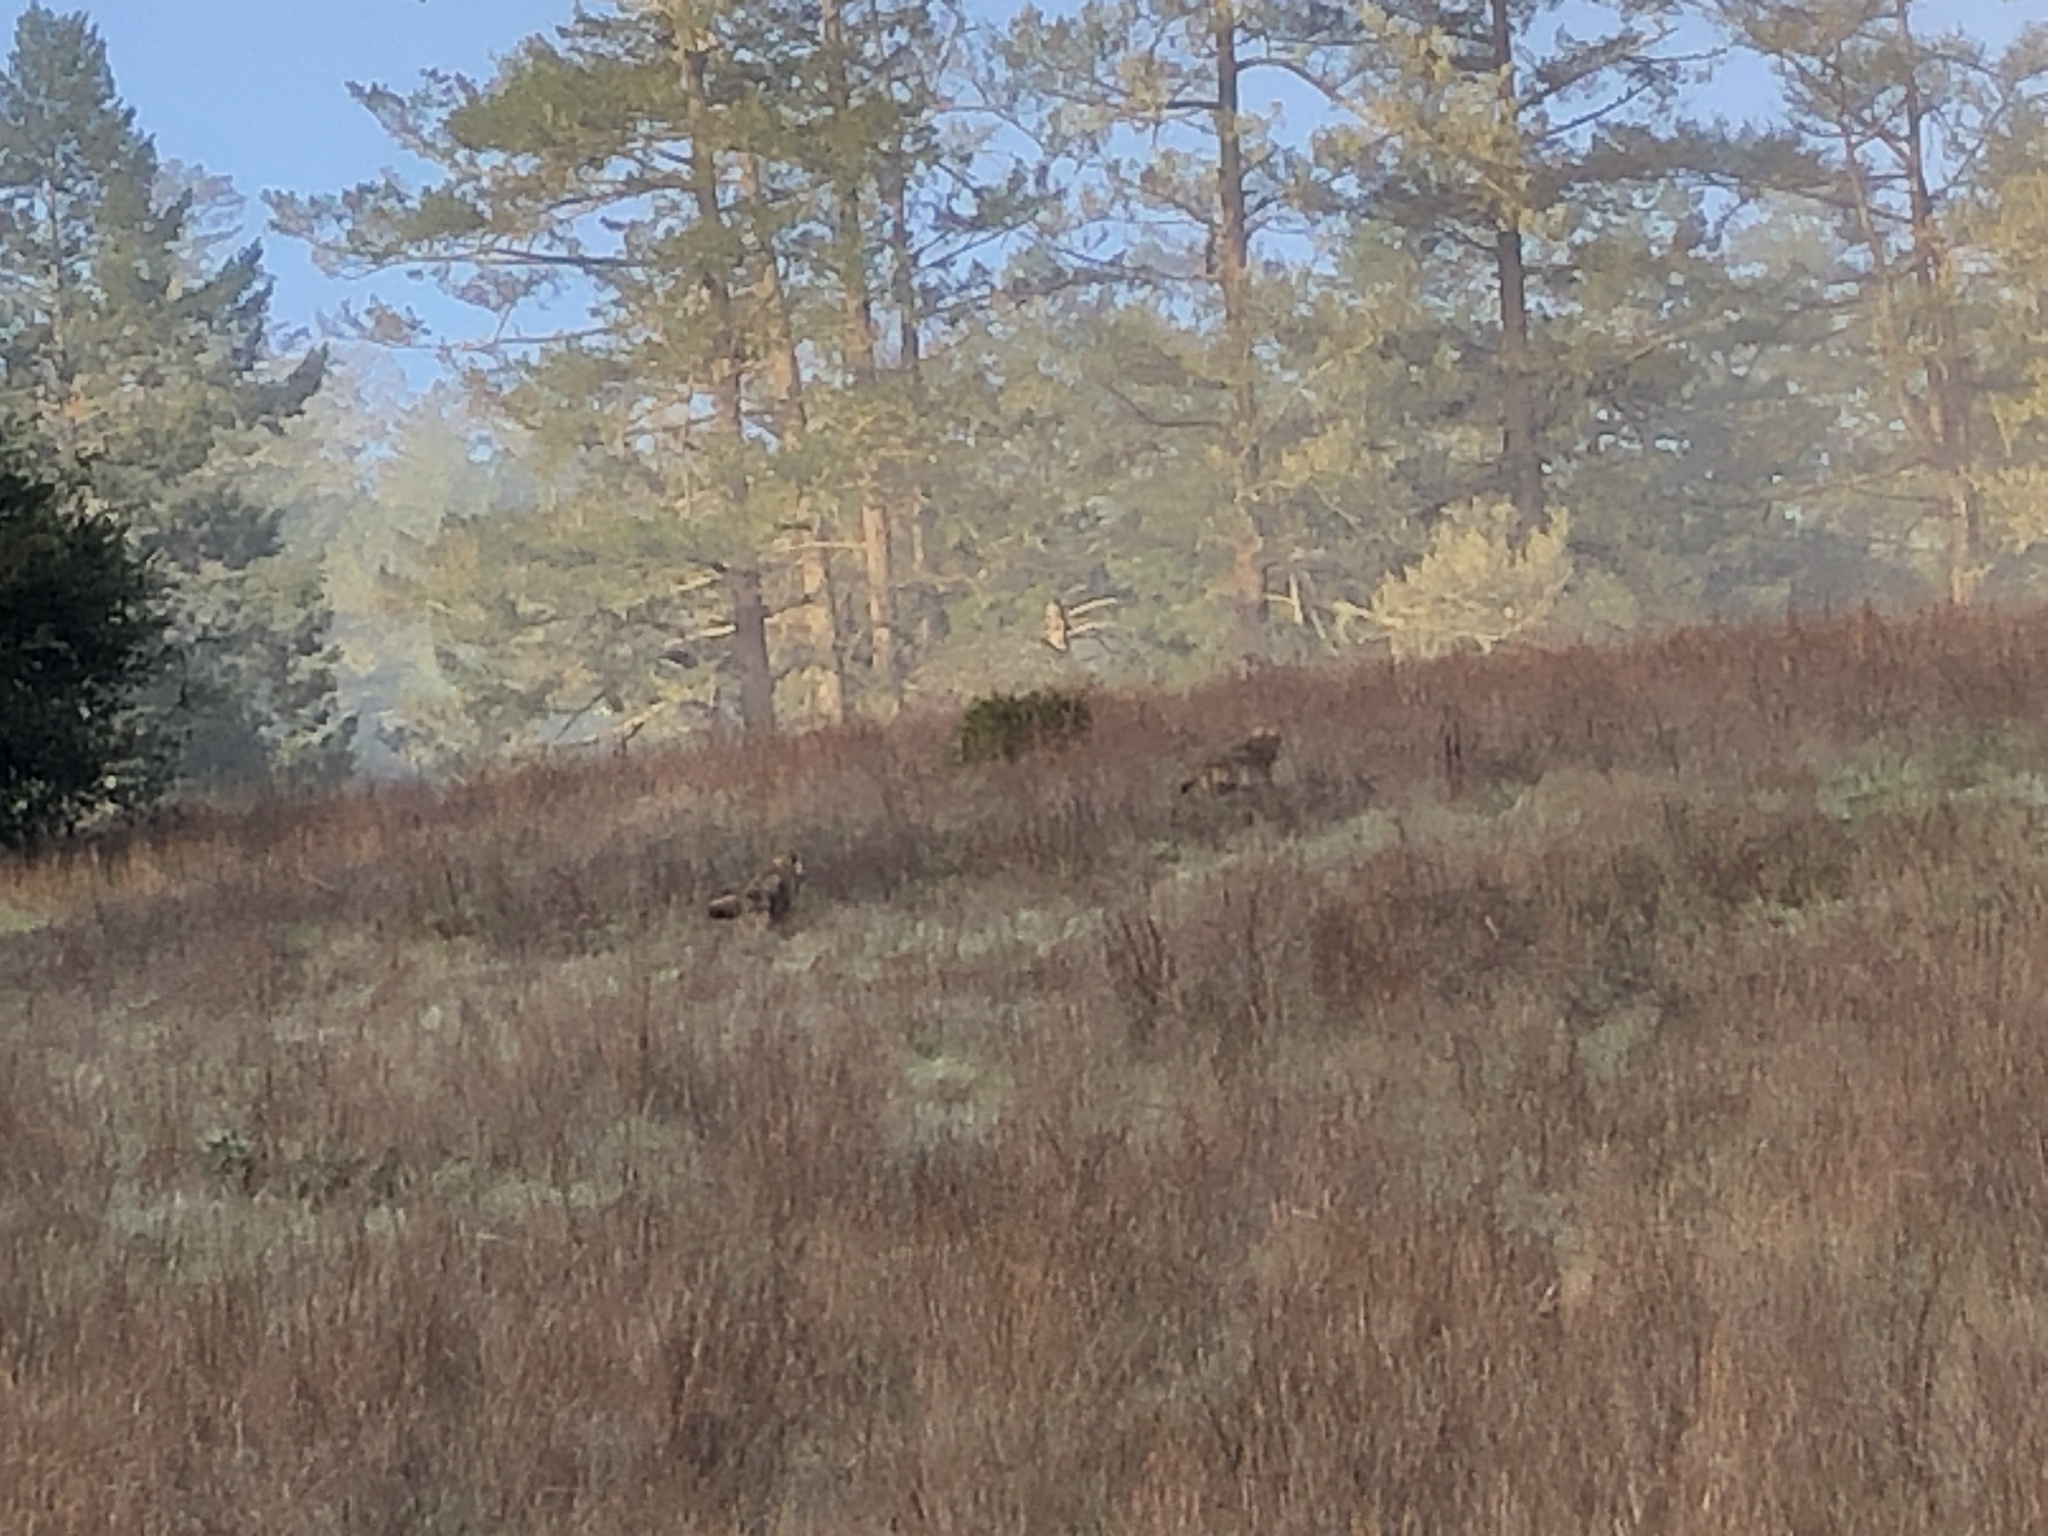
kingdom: Animalia
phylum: Chordata
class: Mammalia
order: Carnivora
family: Canidae
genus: Canis
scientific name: Canis latrans
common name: Coyote
